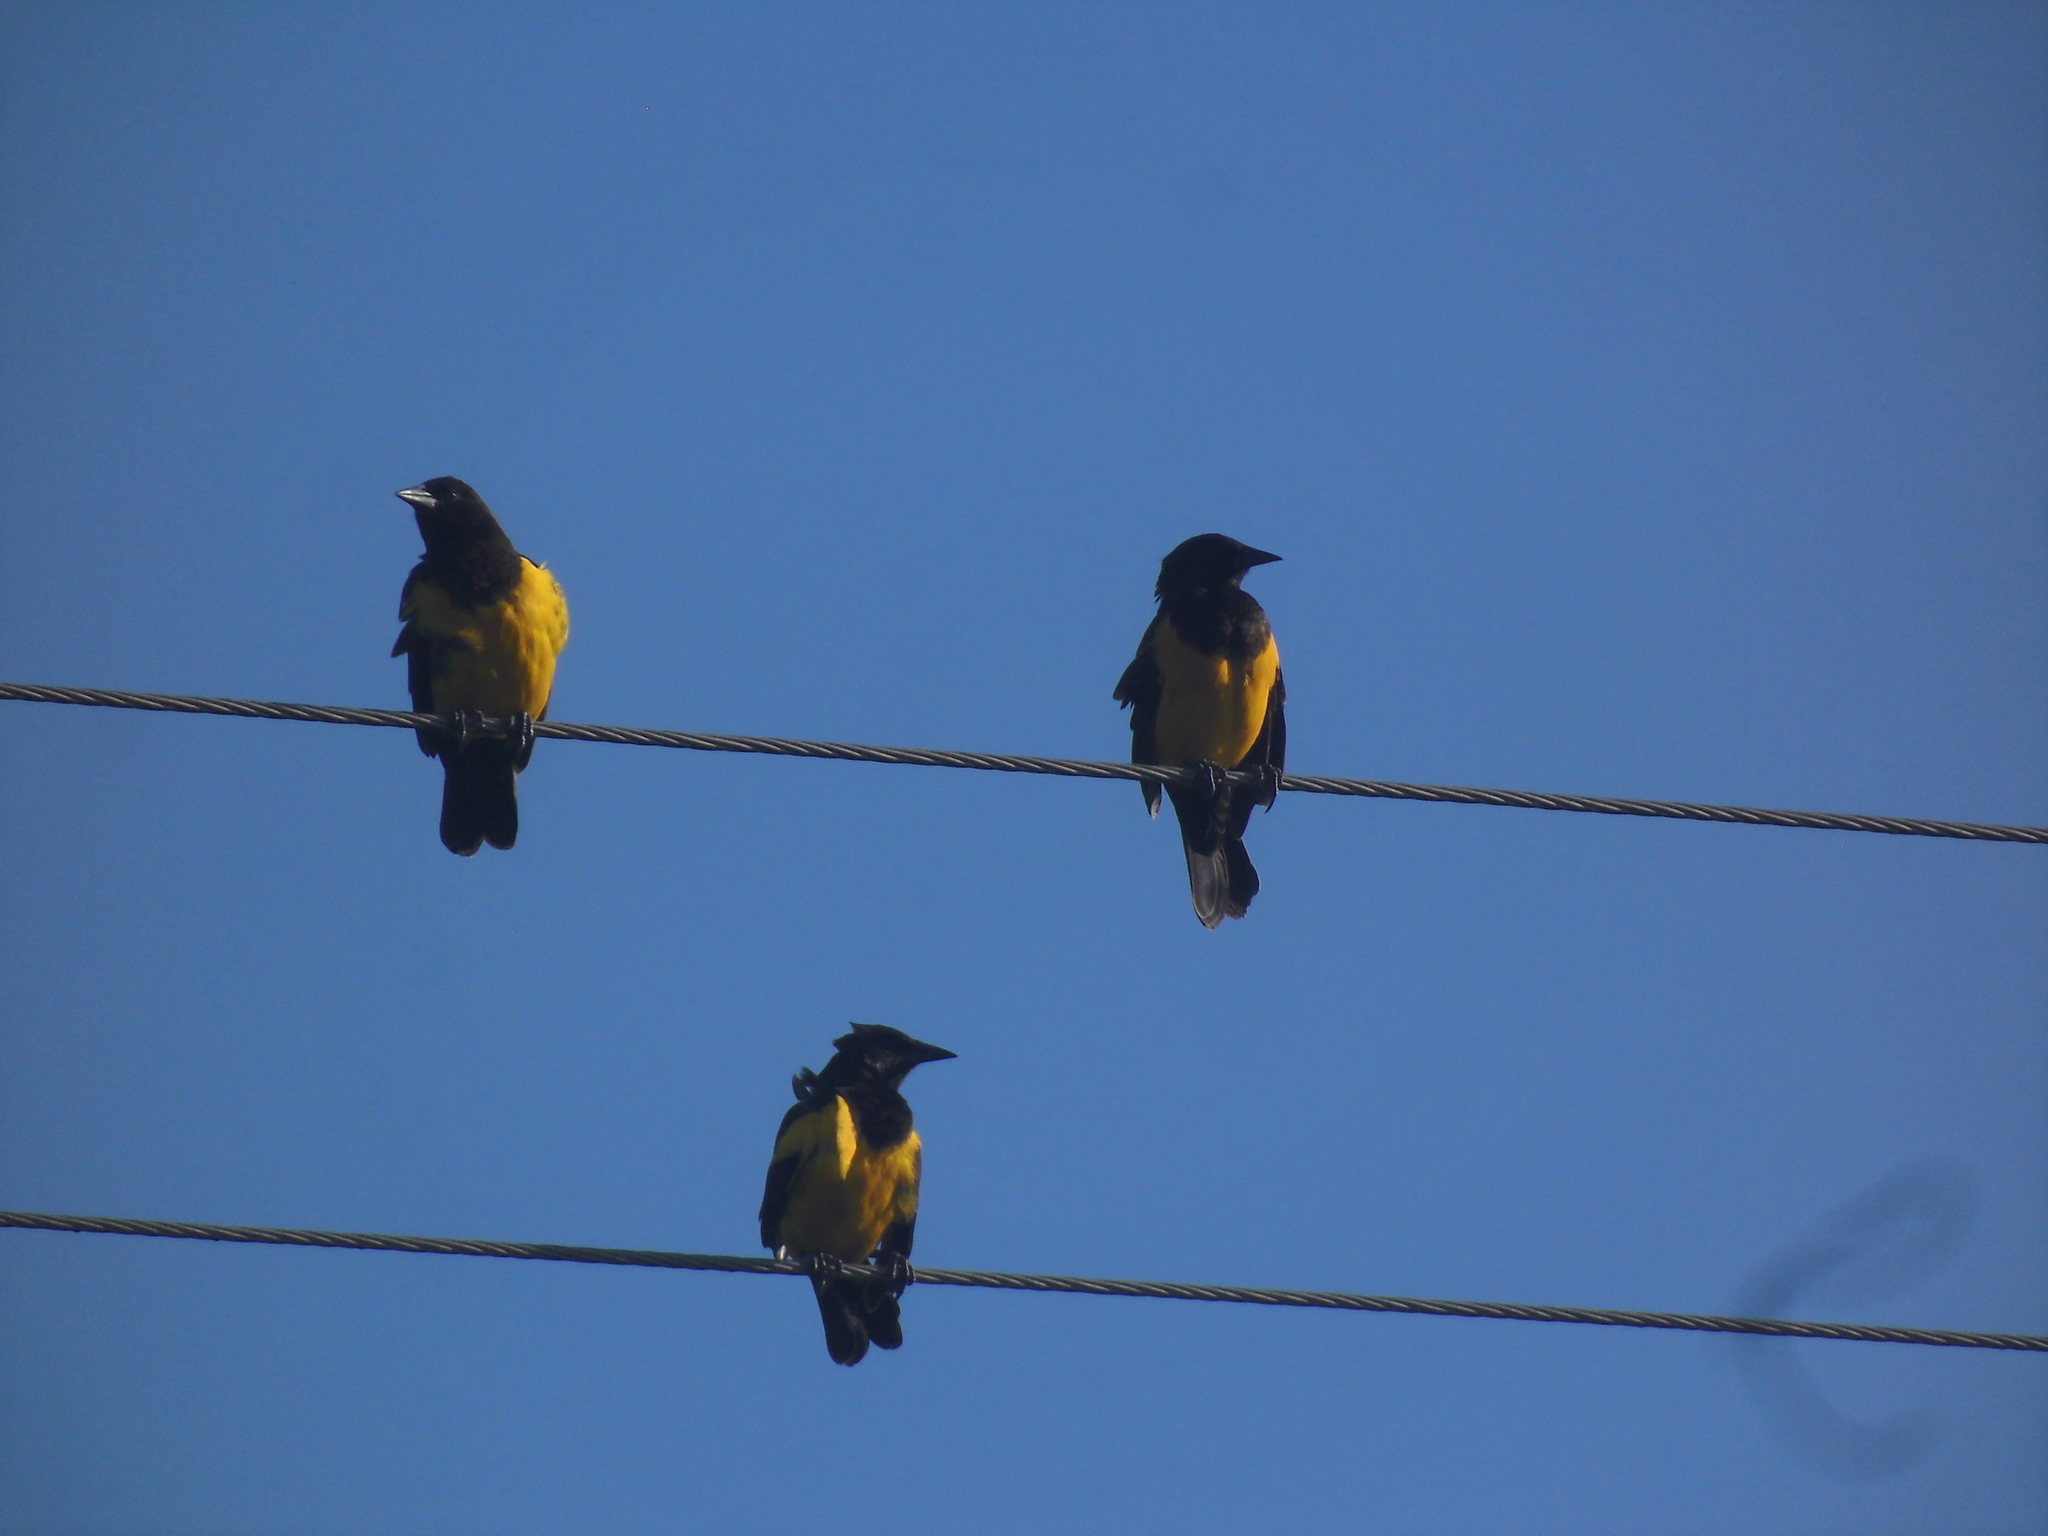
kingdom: Animalia
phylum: Chordata
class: Aves
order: Passeriformes
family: Icteridae
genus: Pseudoleistes
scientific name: Pseudoleistes guirahuro
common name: Yellow-rumped marshbird
